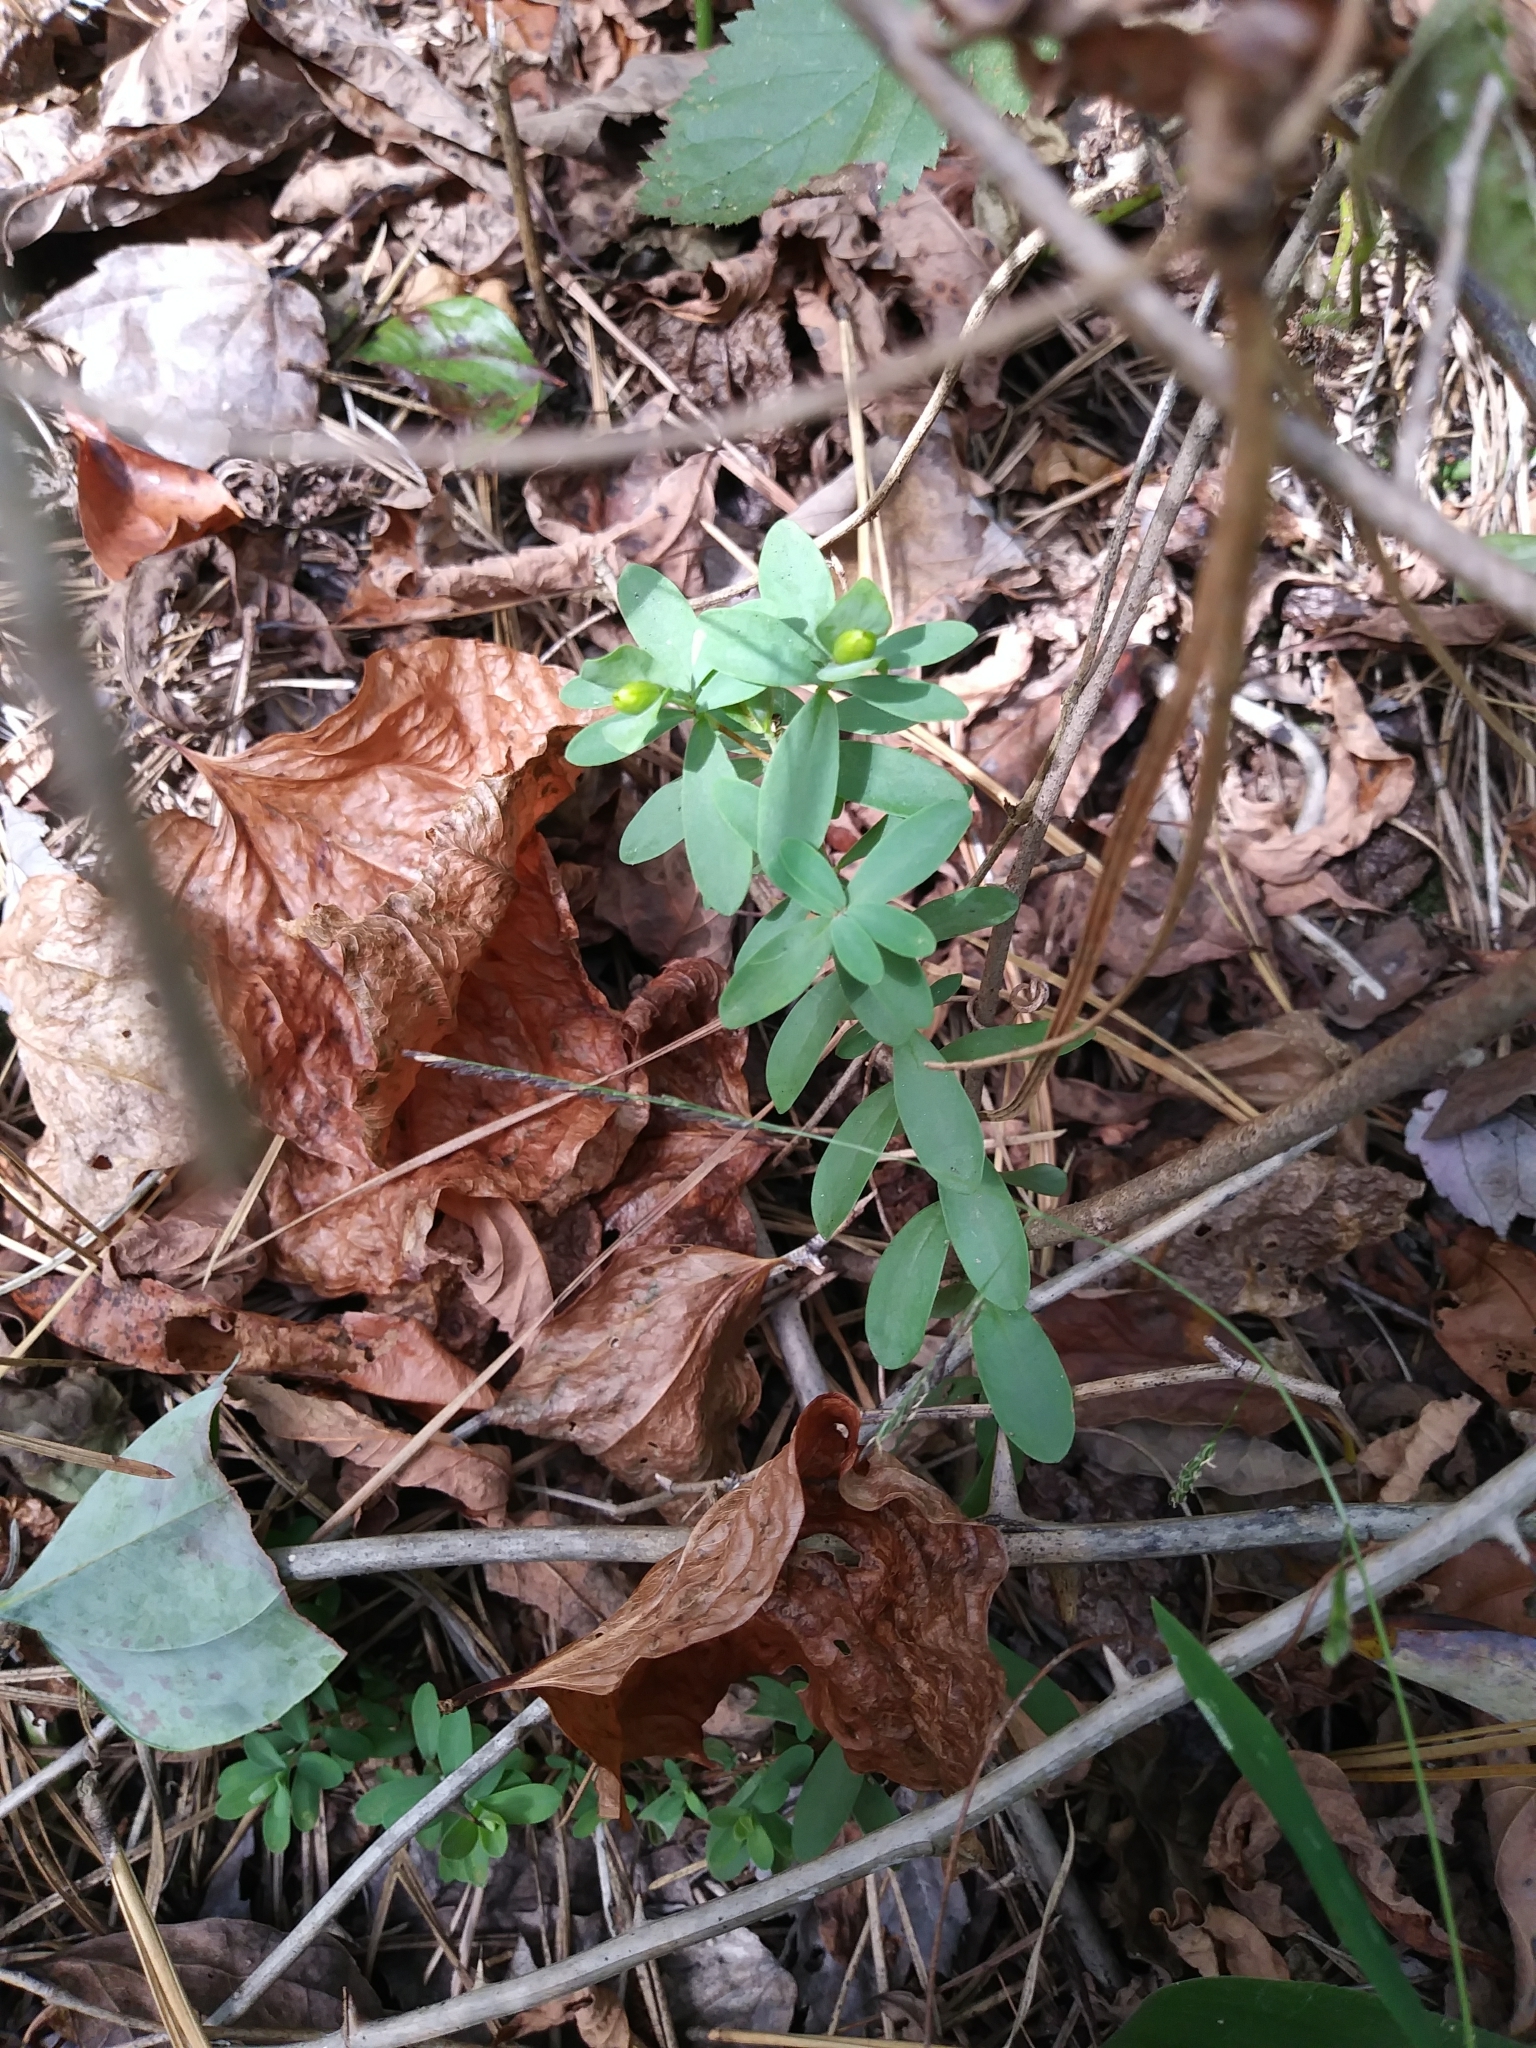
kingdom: Plantae
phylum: Tracheophyta
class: Magnoliopsida
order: Malpighiales
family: Hypericaceae
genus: Hypericum
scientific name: Hypericum hypericoides
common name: St. andrew's cross
